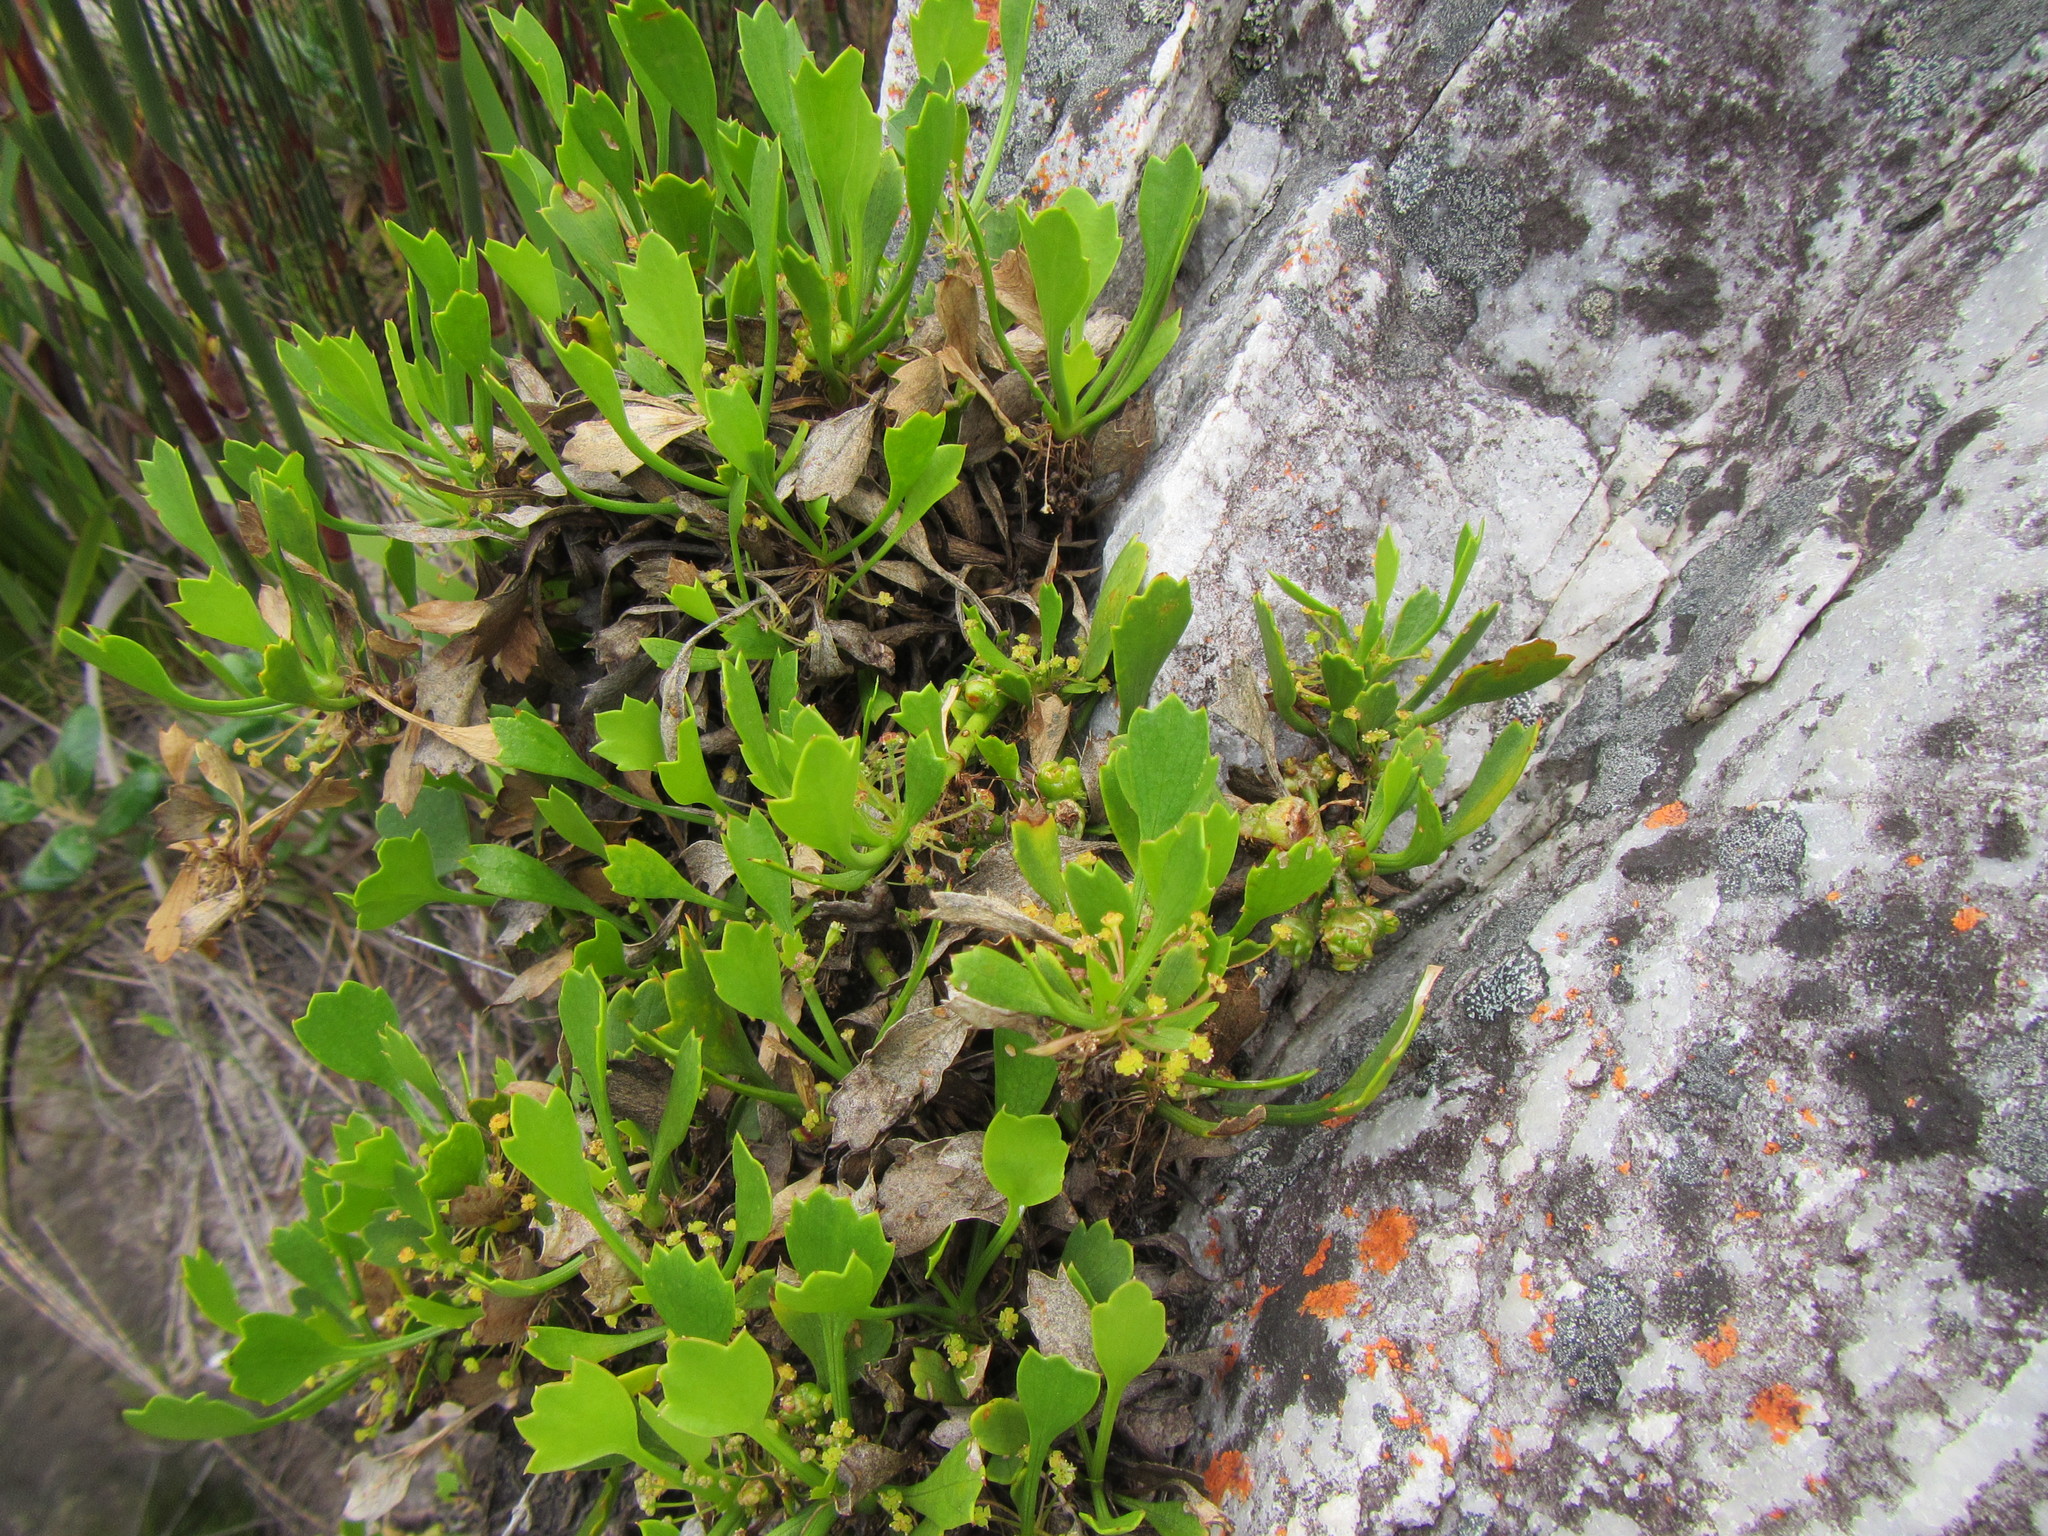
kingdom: Plantae
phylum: Tracheophyta
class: Magnoliopsida
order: Apiales
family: Apiaceae
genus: Centella
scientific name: Centella triloba
